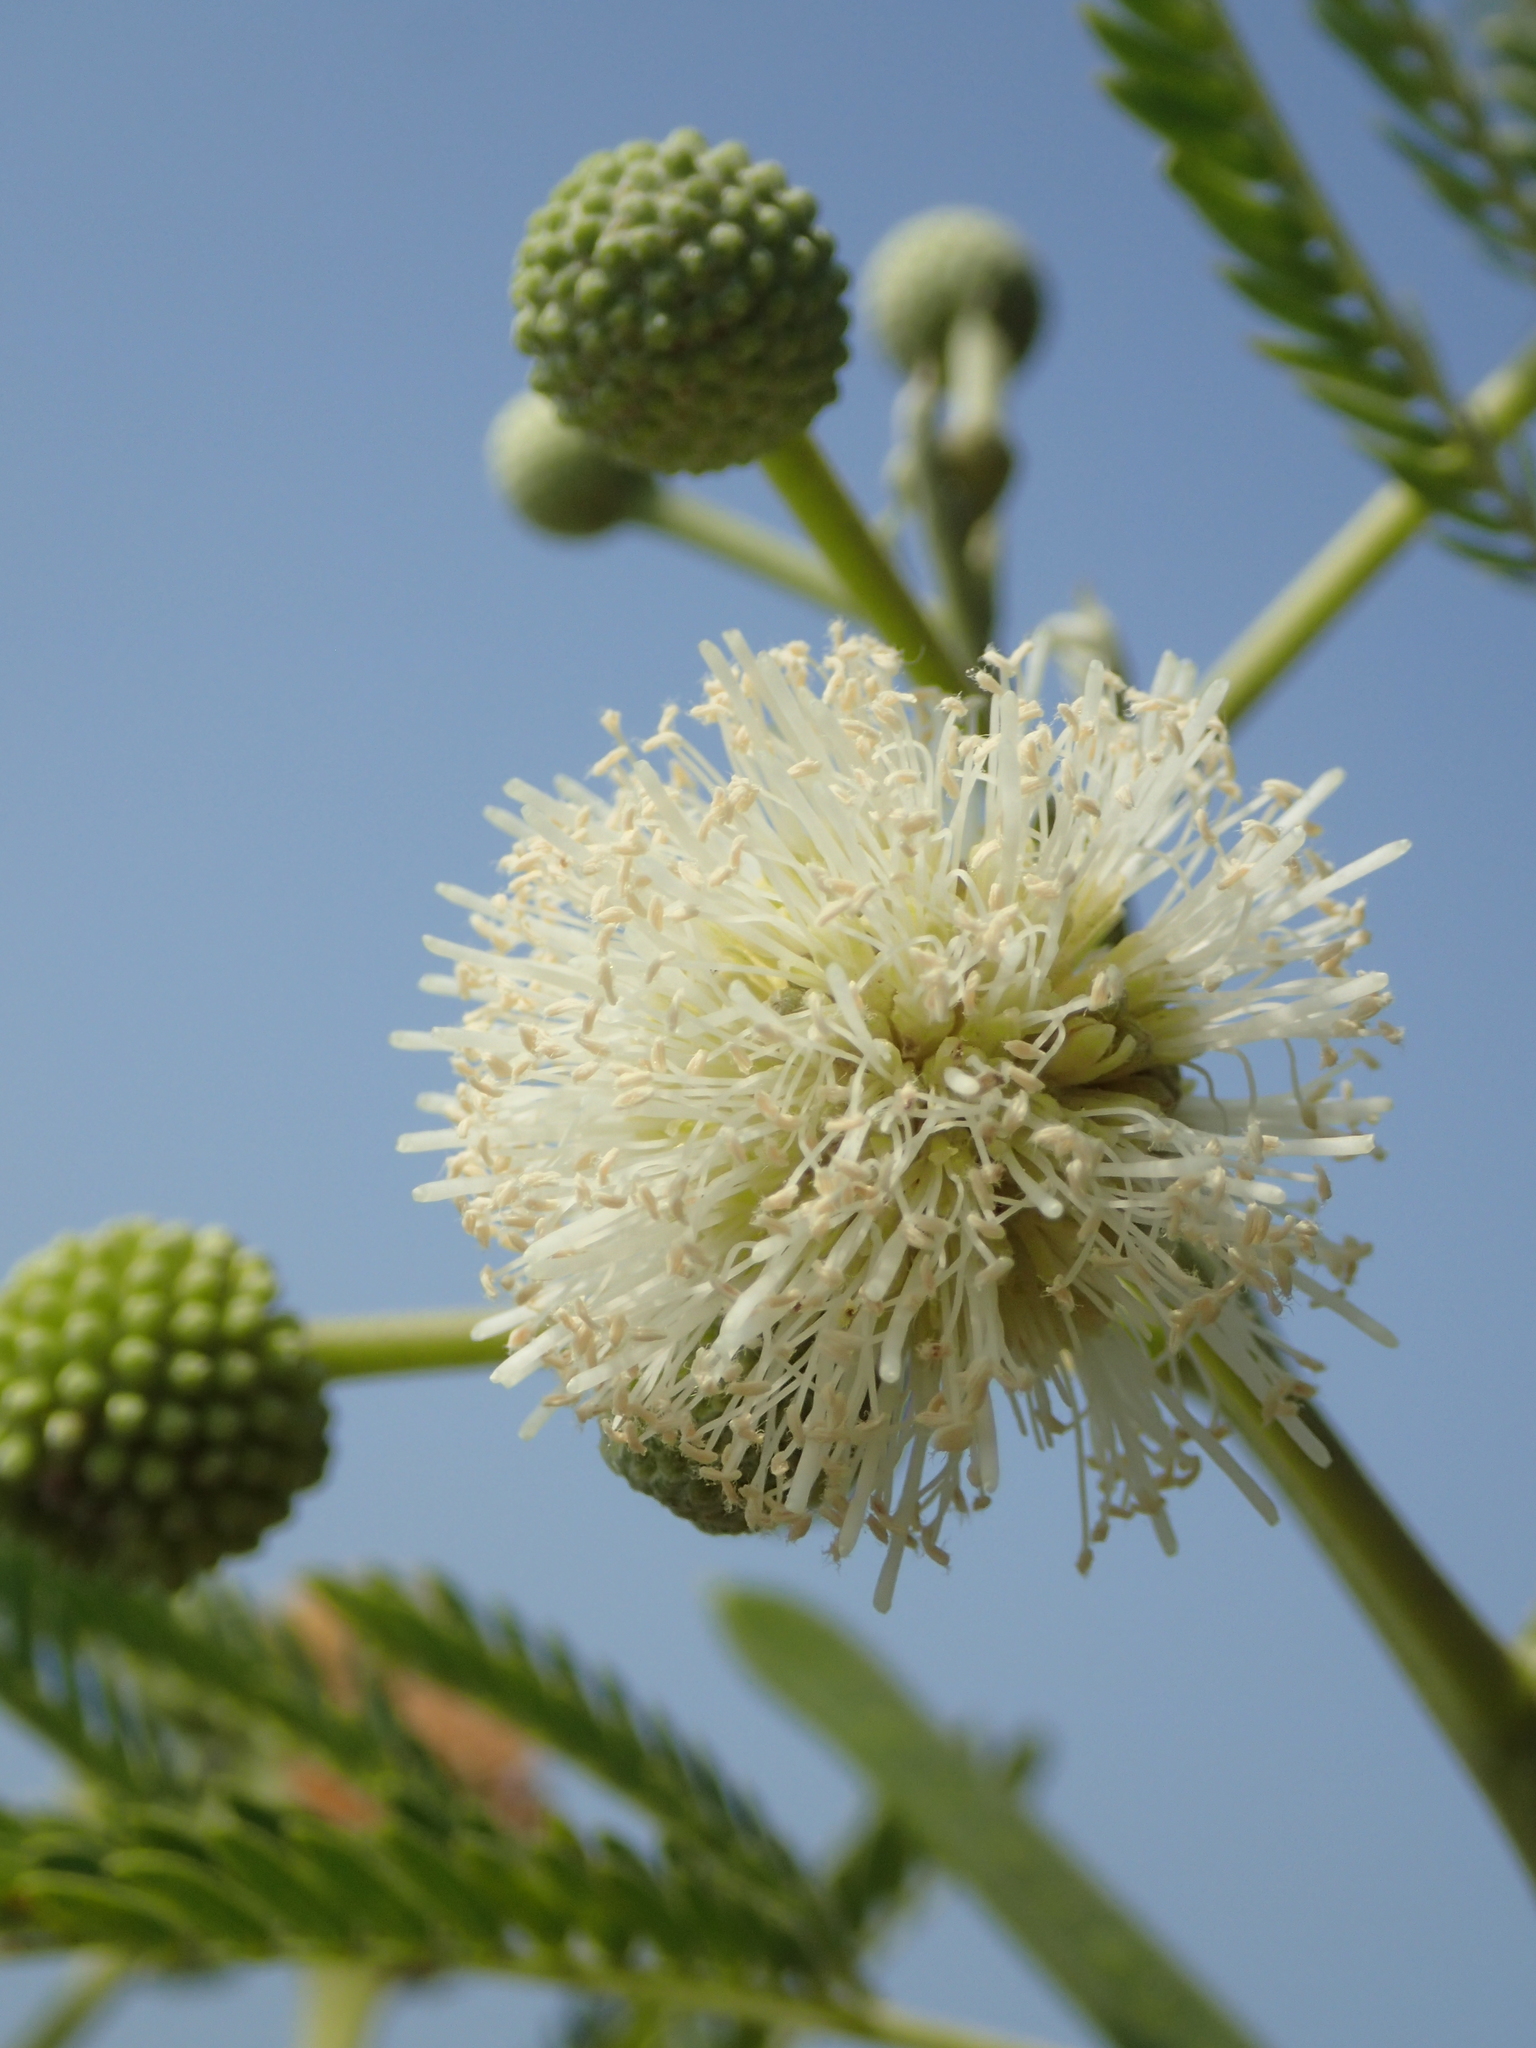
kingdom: Plantae
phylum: Tracheophyta
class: Magnoliopsida
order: Fabales
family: Fabaceae
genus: Leucaena
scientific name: Leucaena leucocephala
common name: White leadtree
